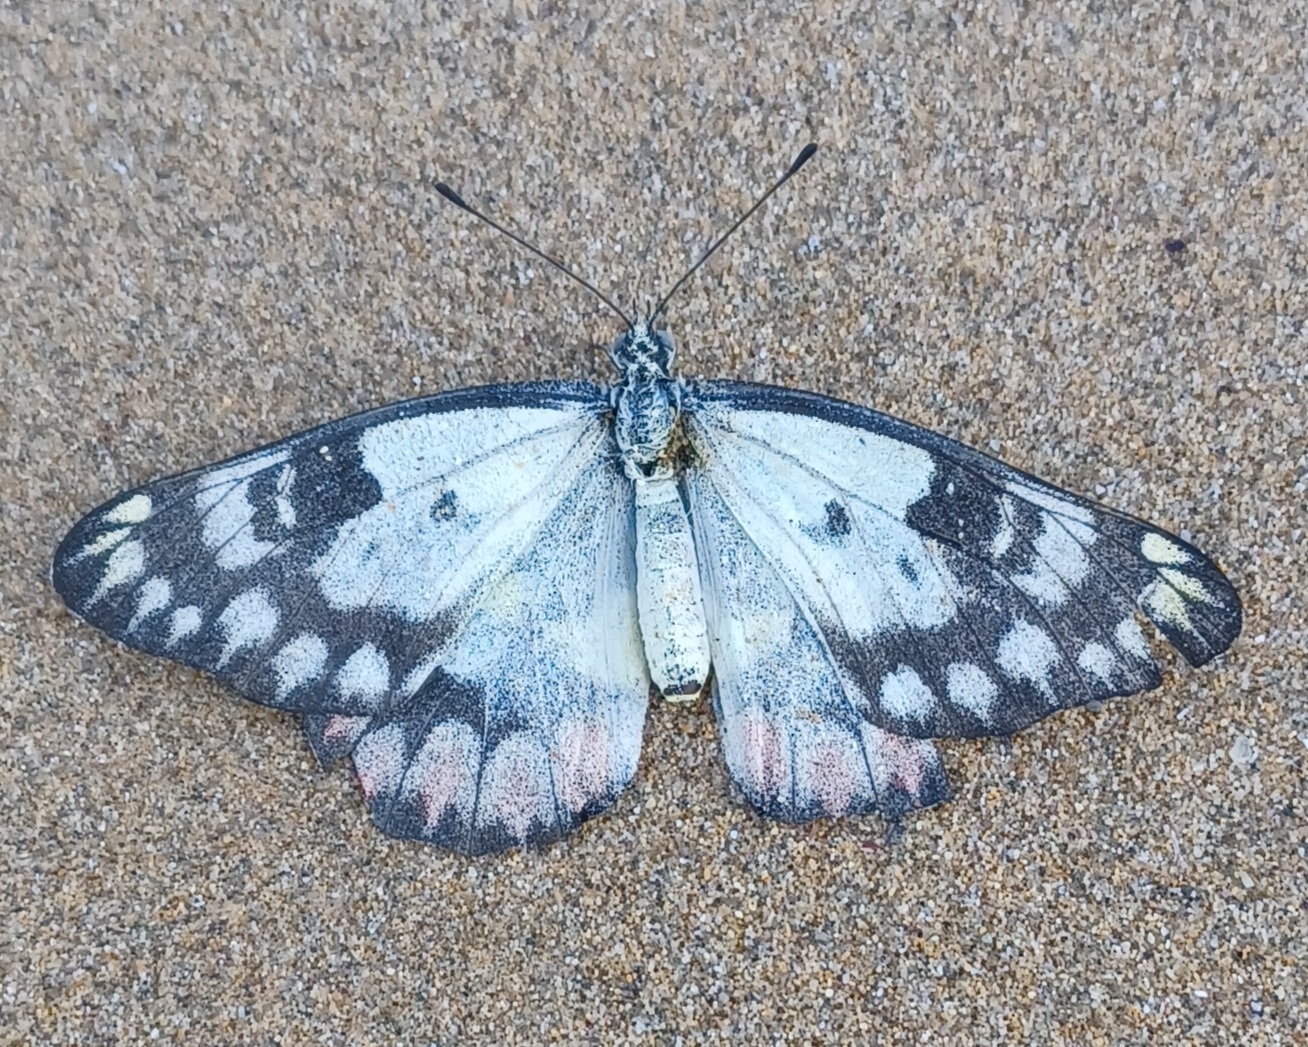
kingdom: Animalia
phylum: Arthropoda
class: Insecta
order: Lepidoptera
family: Pieridae
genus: Delias
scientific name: Delias aganippe
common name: Red-spotted jezebel
